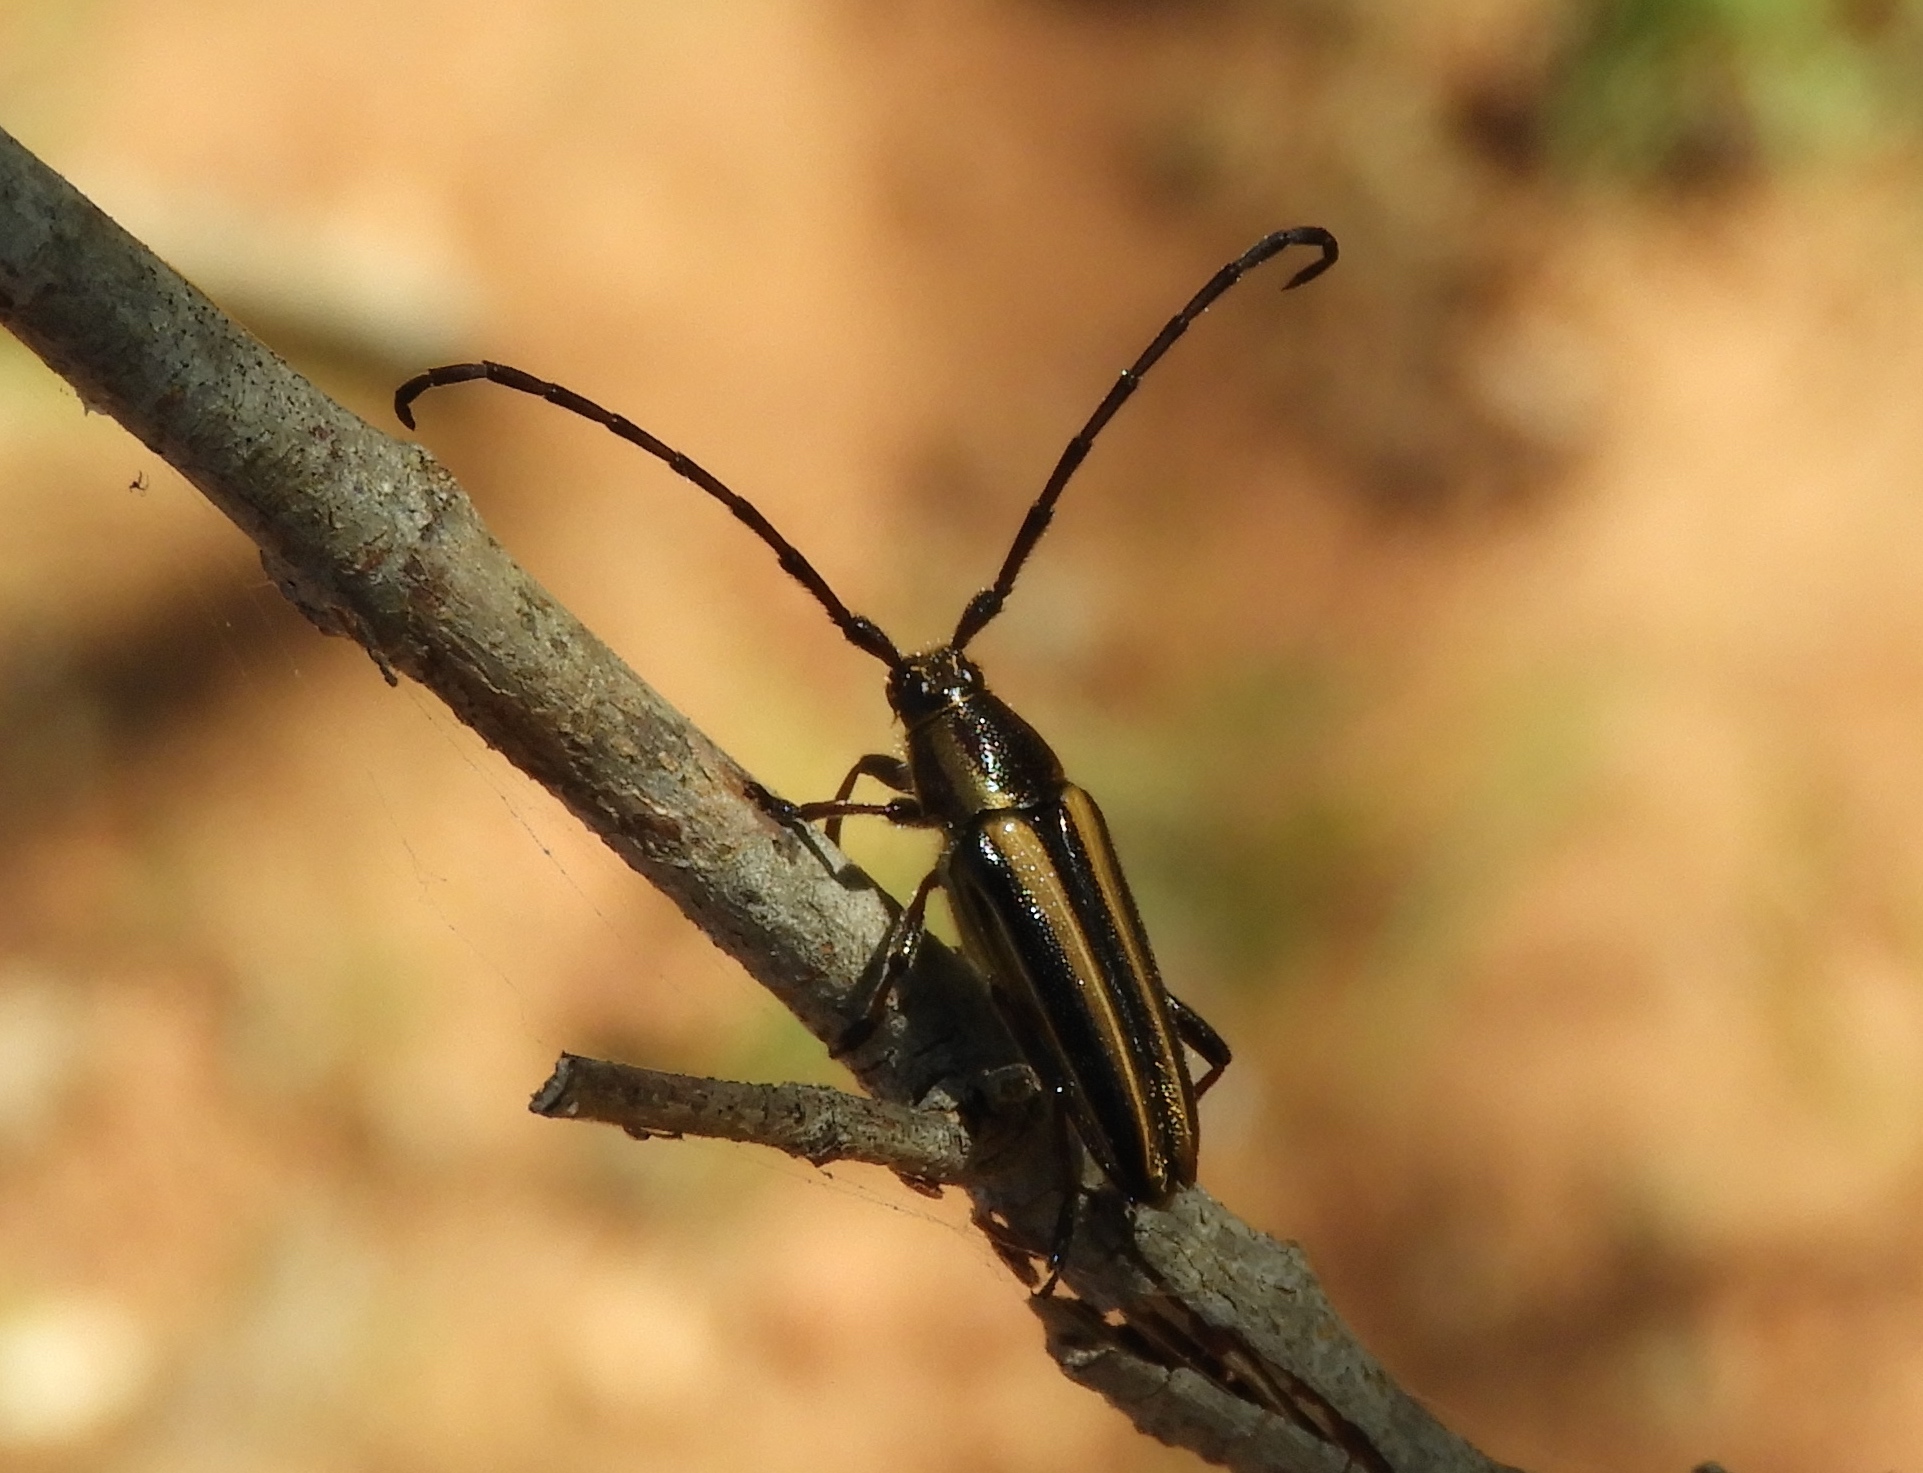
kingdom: Animalia
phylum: Arthropoda
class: Insecta
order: Coleoptera
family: Cerambycidae
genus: Sphaenothecus
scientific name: Sphaenothecus
